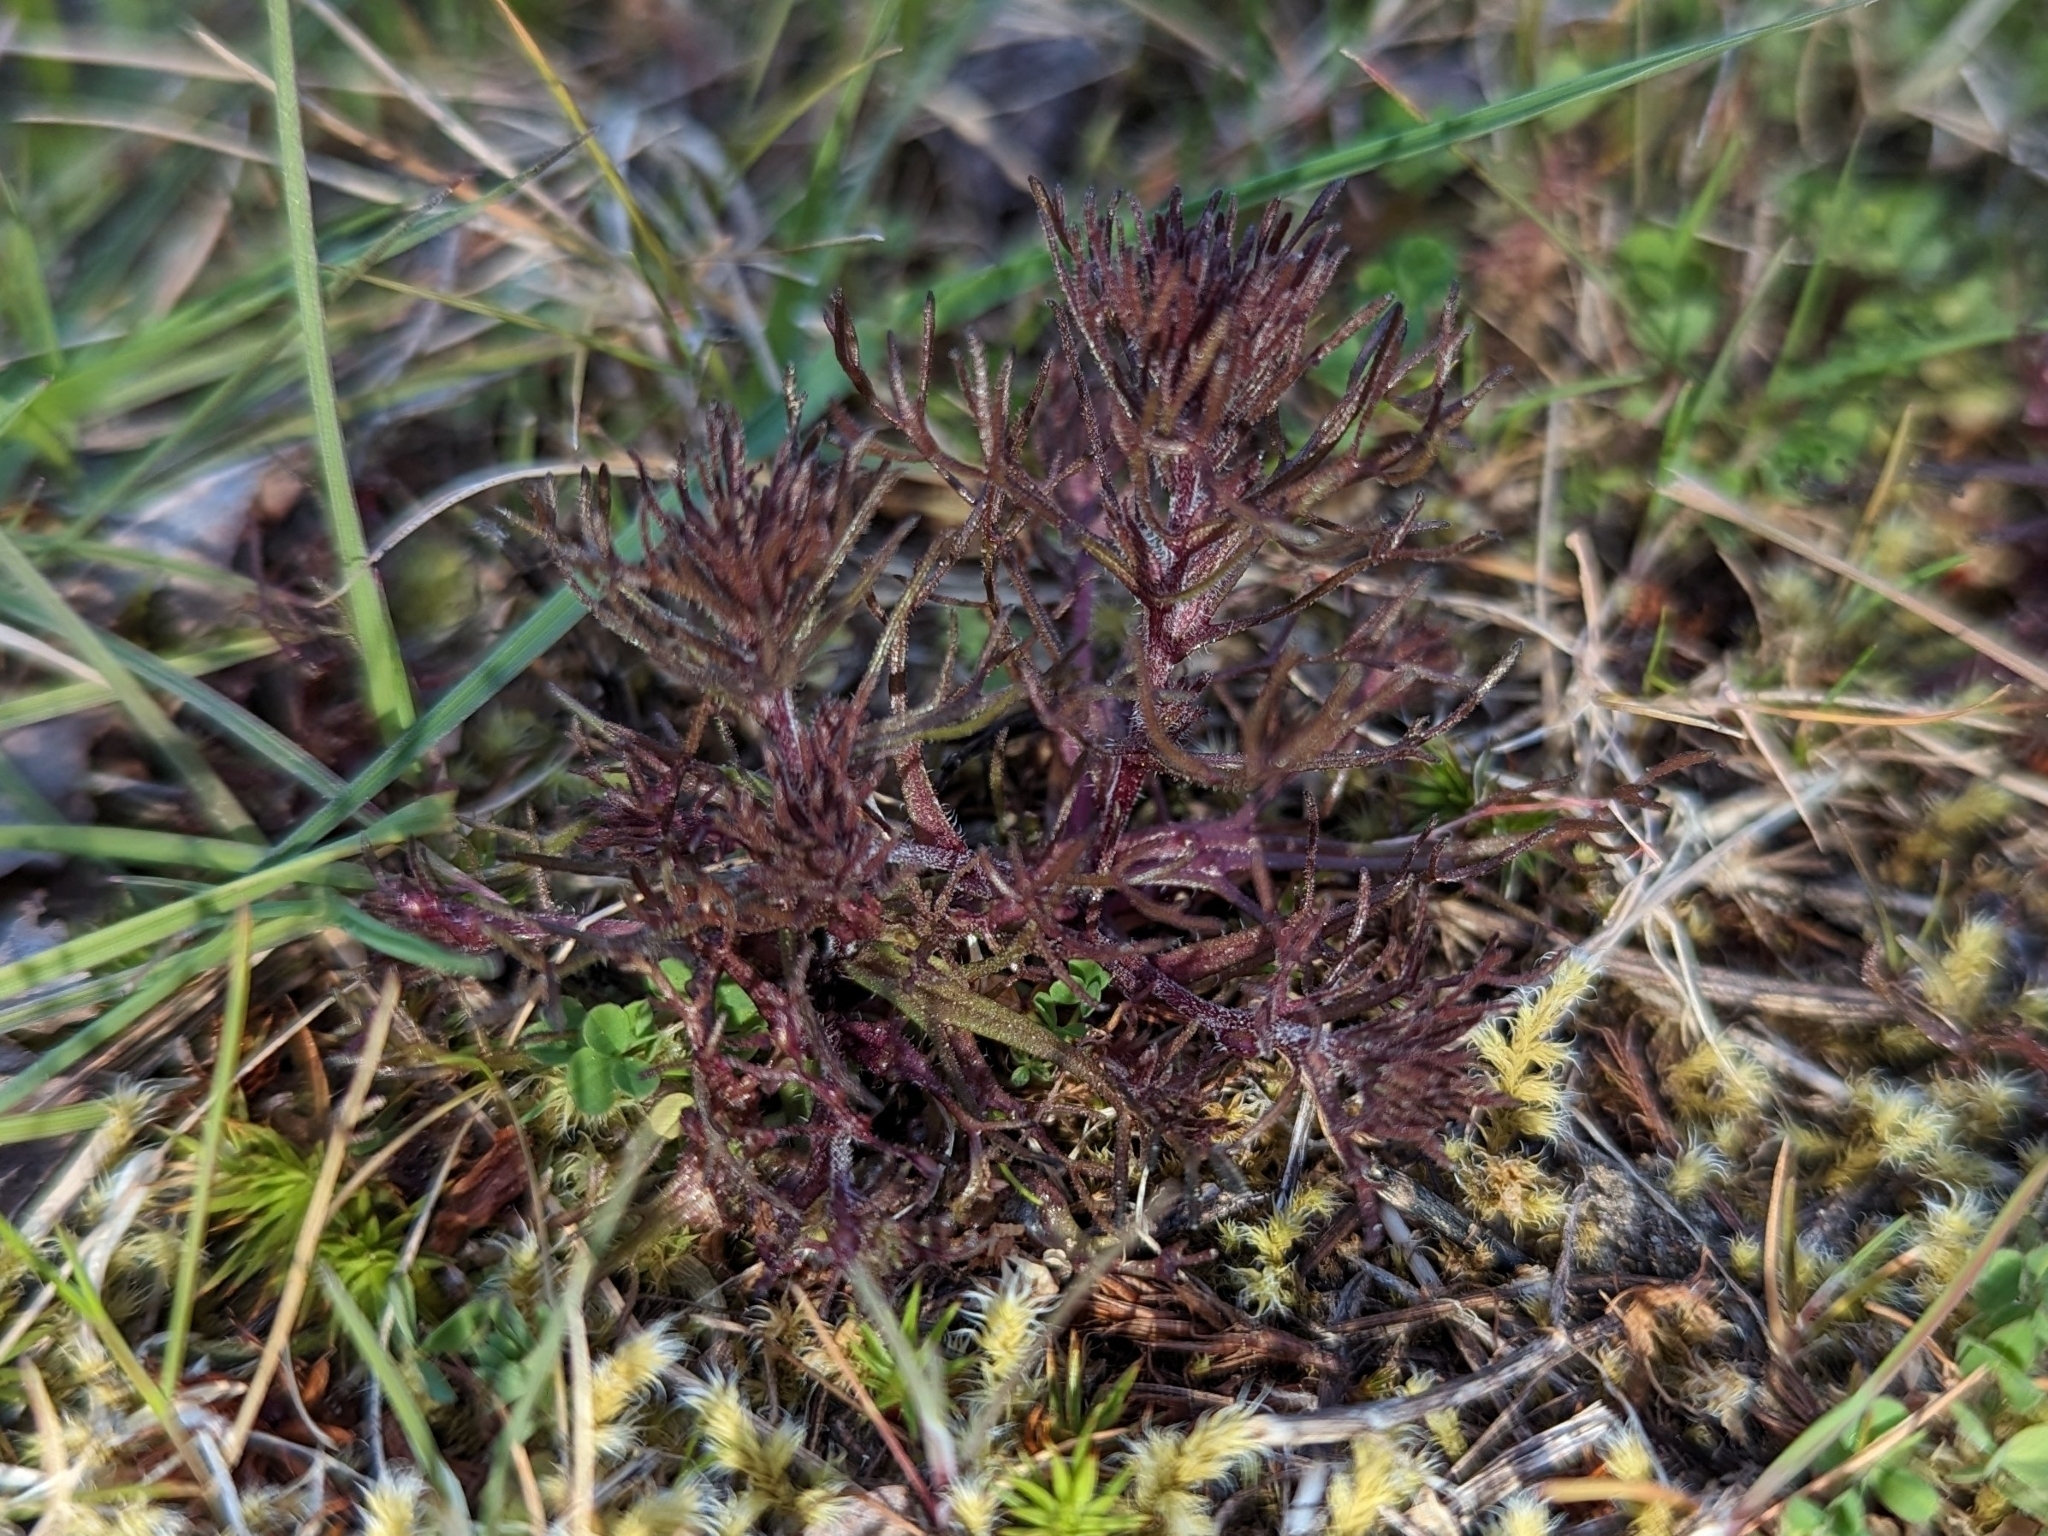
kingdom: Plantae
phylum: Tracheophyta
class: Magnoliopsida
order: Lamiales
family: Orobanchaceae
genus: Triphysaria
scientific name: Triphysaria pusilla
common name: Dwarf false owl-clover
